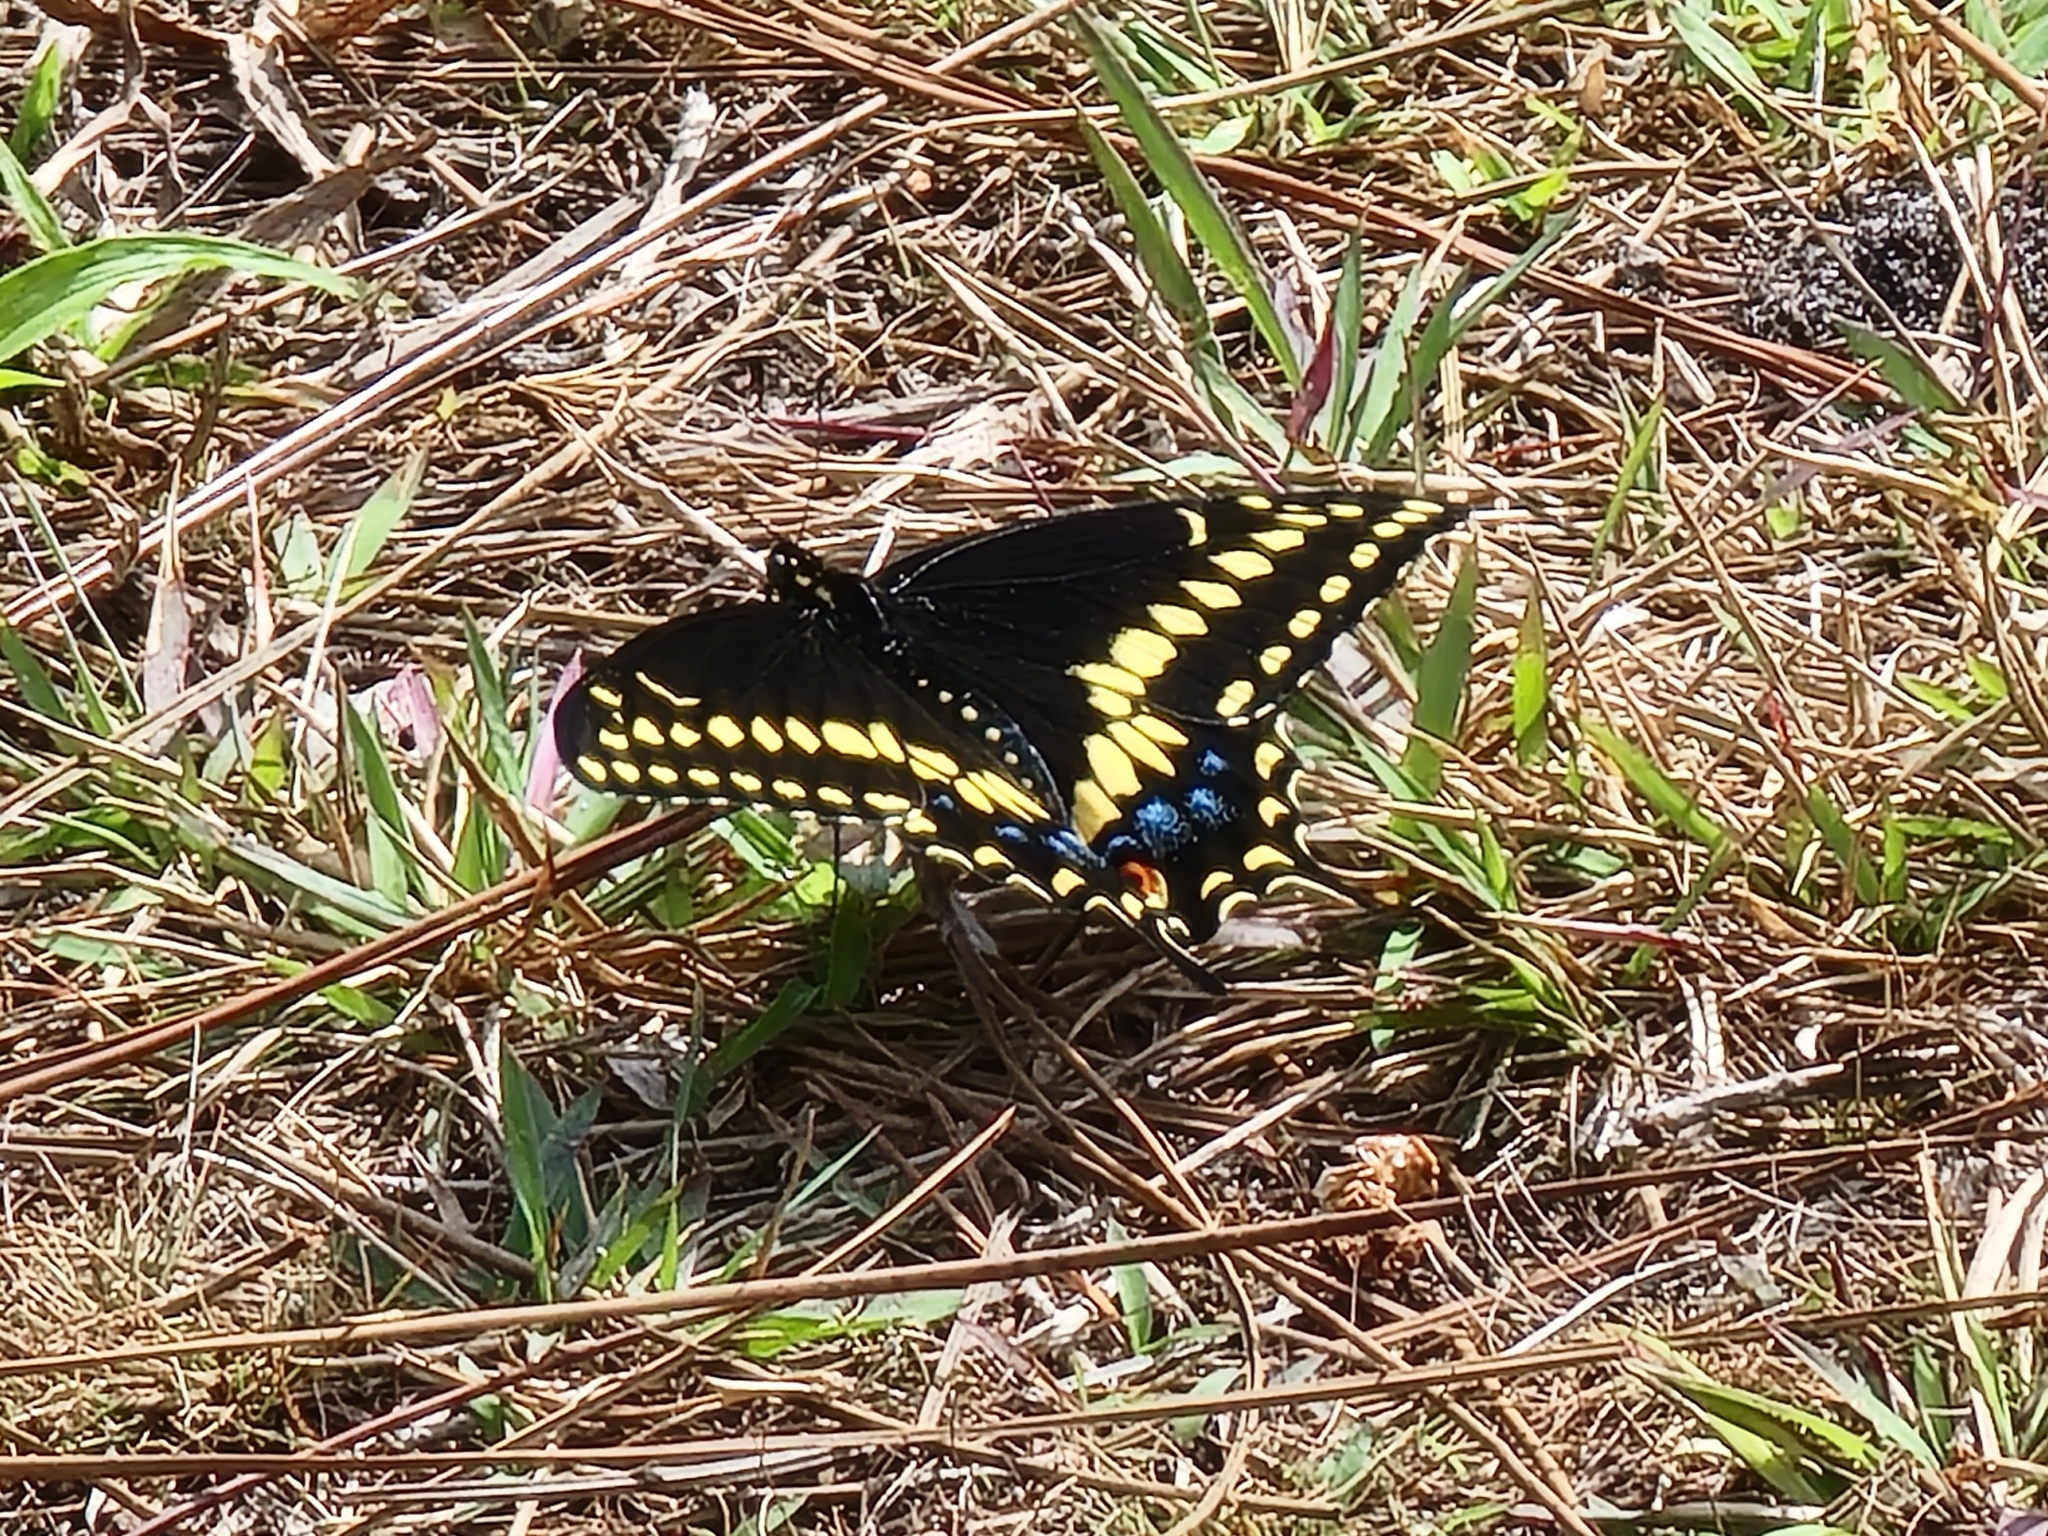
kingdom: Animalia
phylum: Arthropoda
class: Insecta
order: Lepidoptera
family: Papilionidae
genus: Papilio
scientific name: Papilio polyxenes
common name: Black swallowtail
